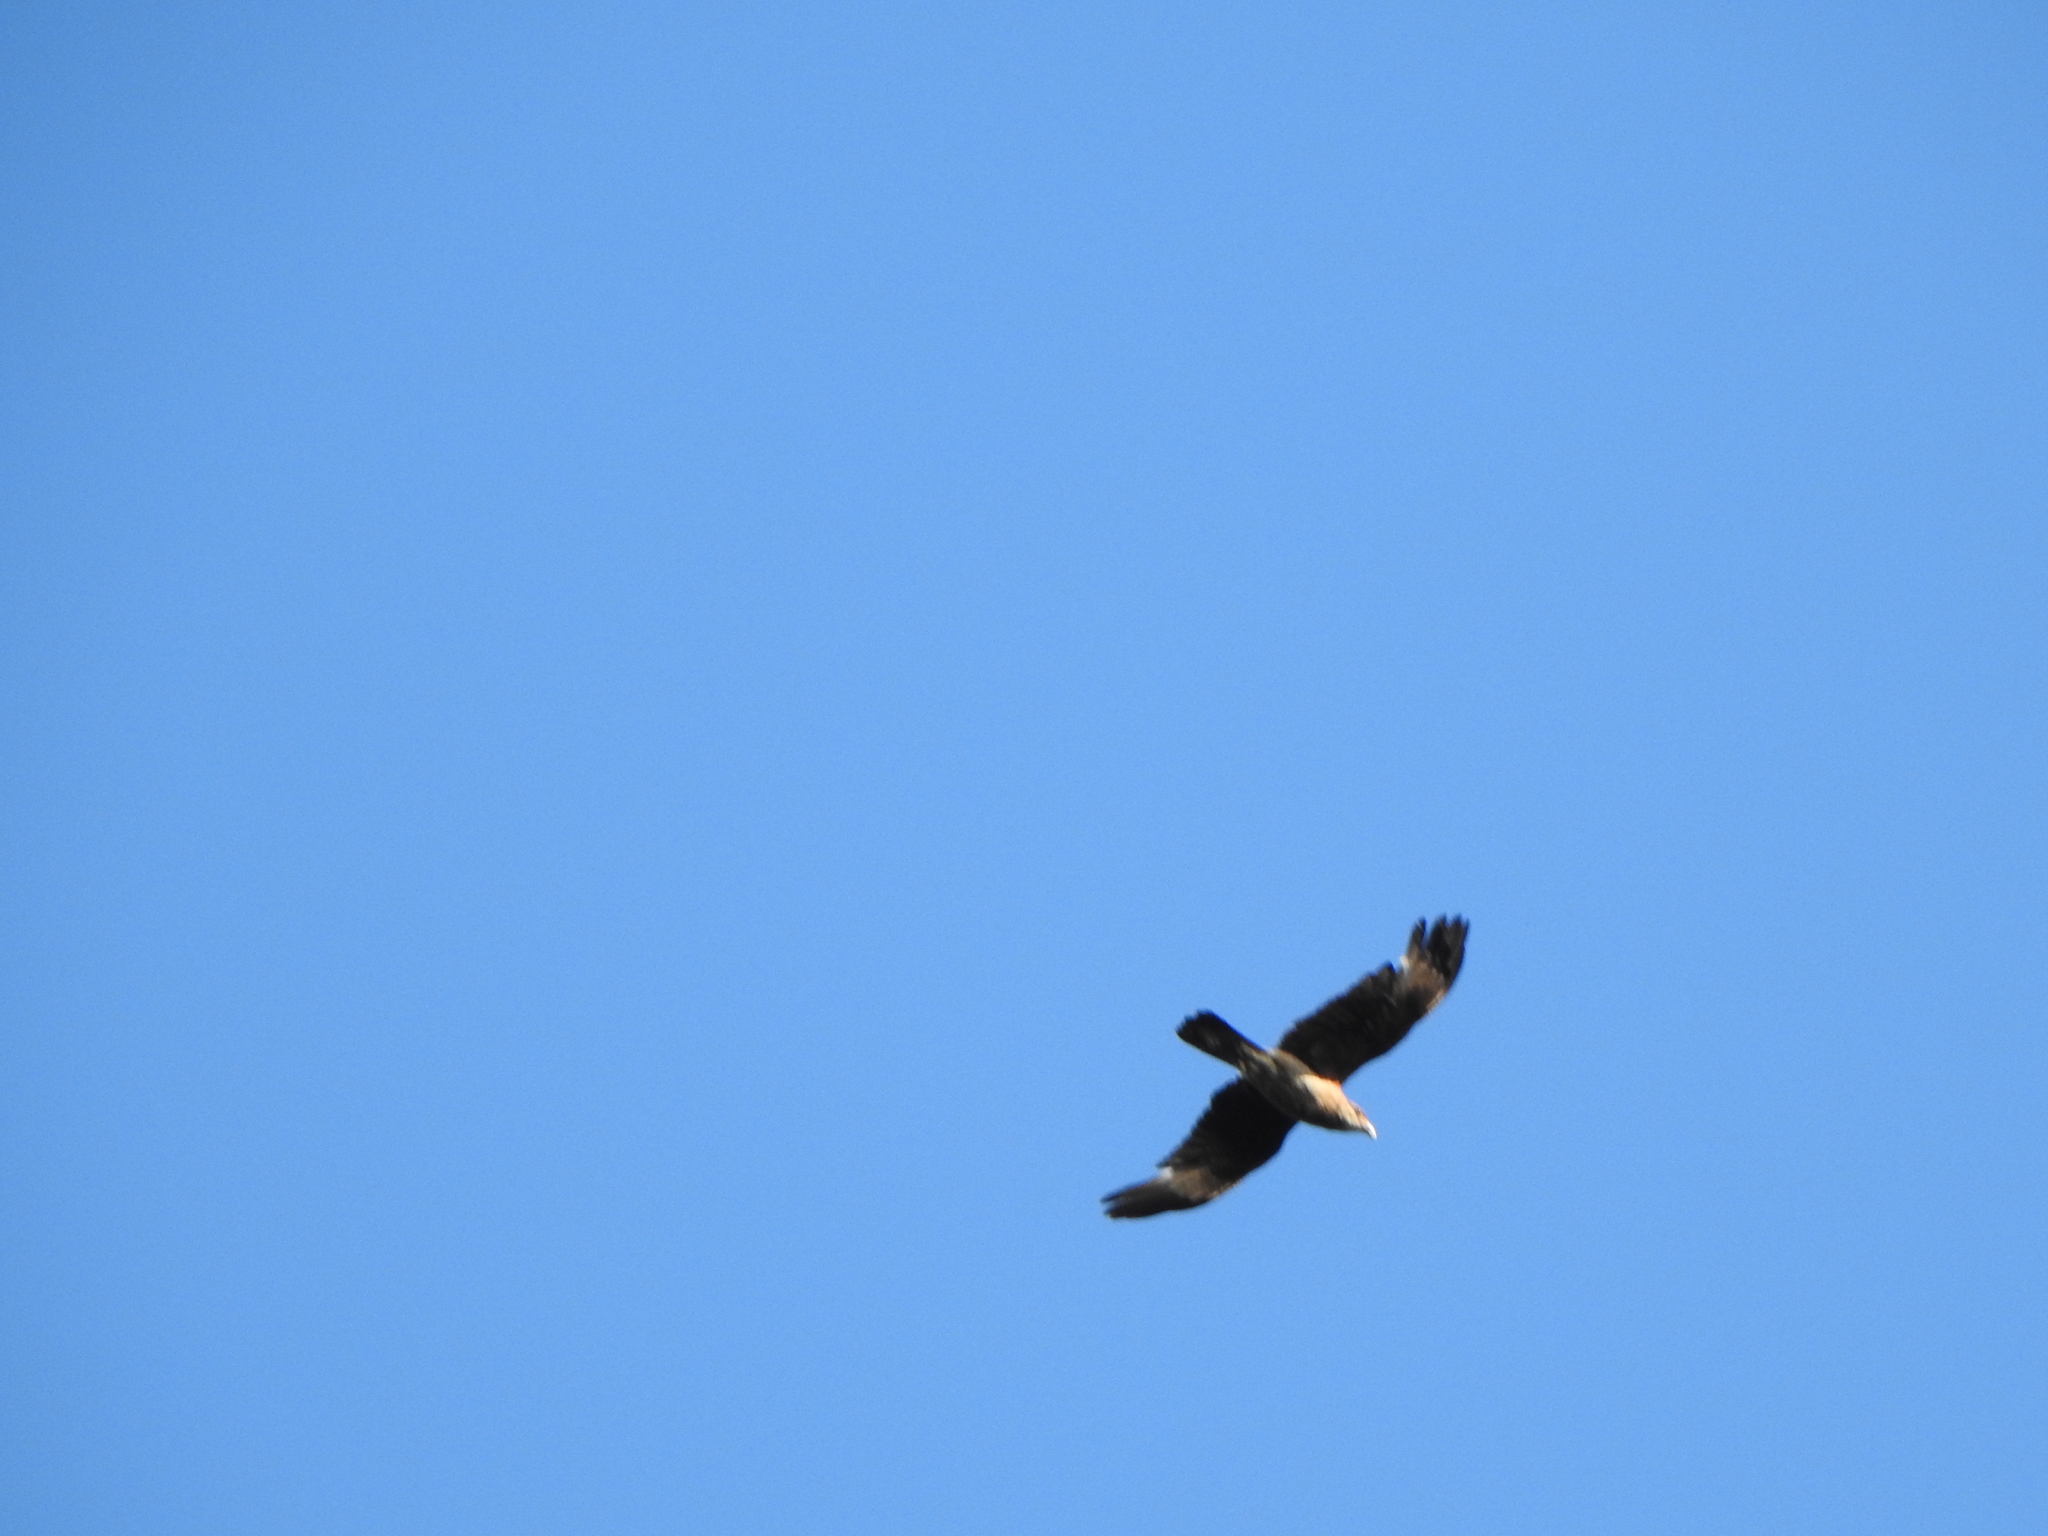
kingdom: Animalia
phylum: Chordata
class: Aves
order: Falconiformes
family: Falconidae
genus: Daptrius
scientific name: Daptrius
